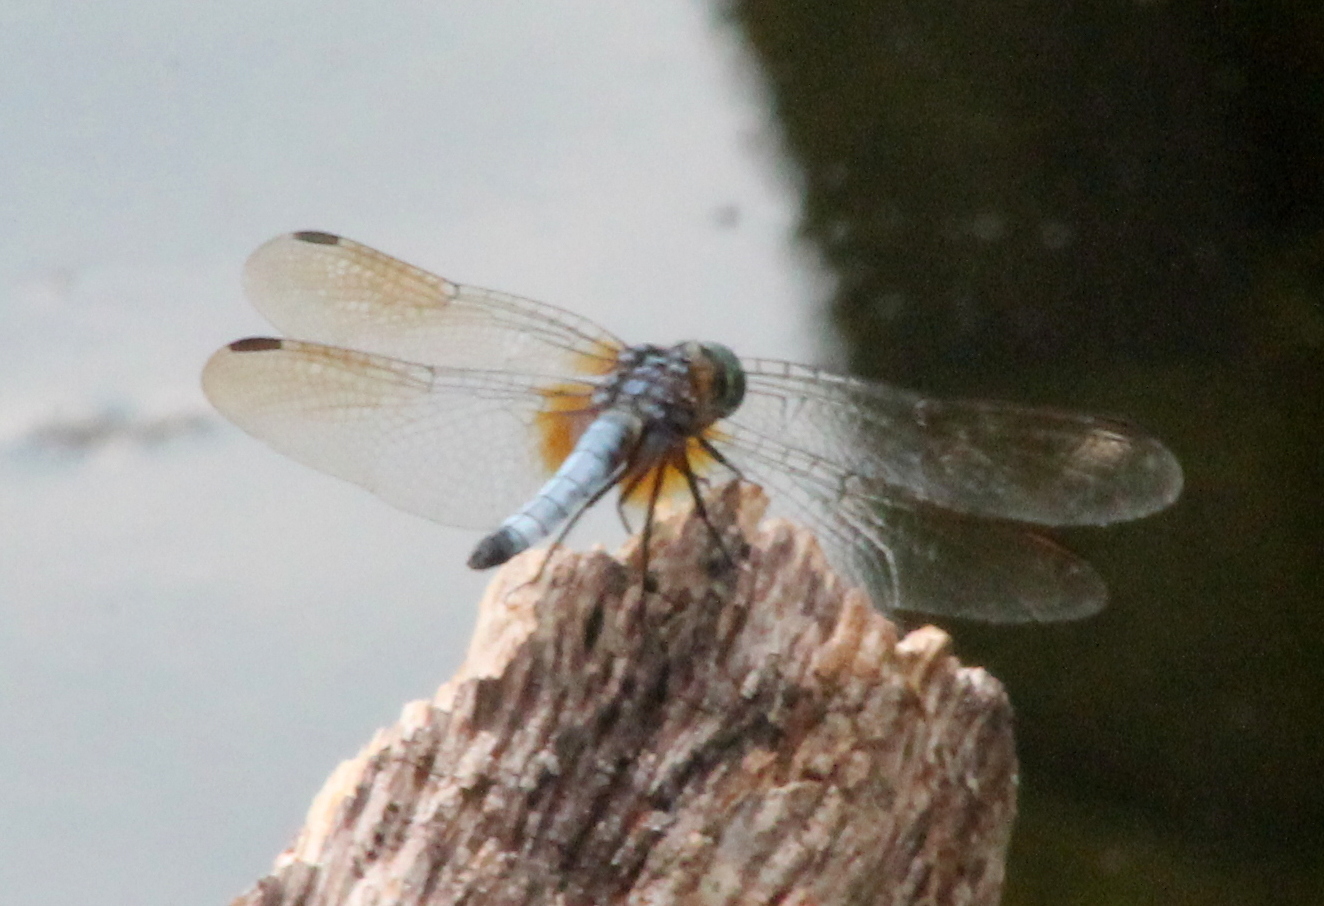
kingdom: Animalia
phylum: Arthropoda
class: Insecta
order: Odonata
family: Libellulidae
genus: Pachydiplax
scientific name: Pachydiplax longipennis
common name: Blue dasher
